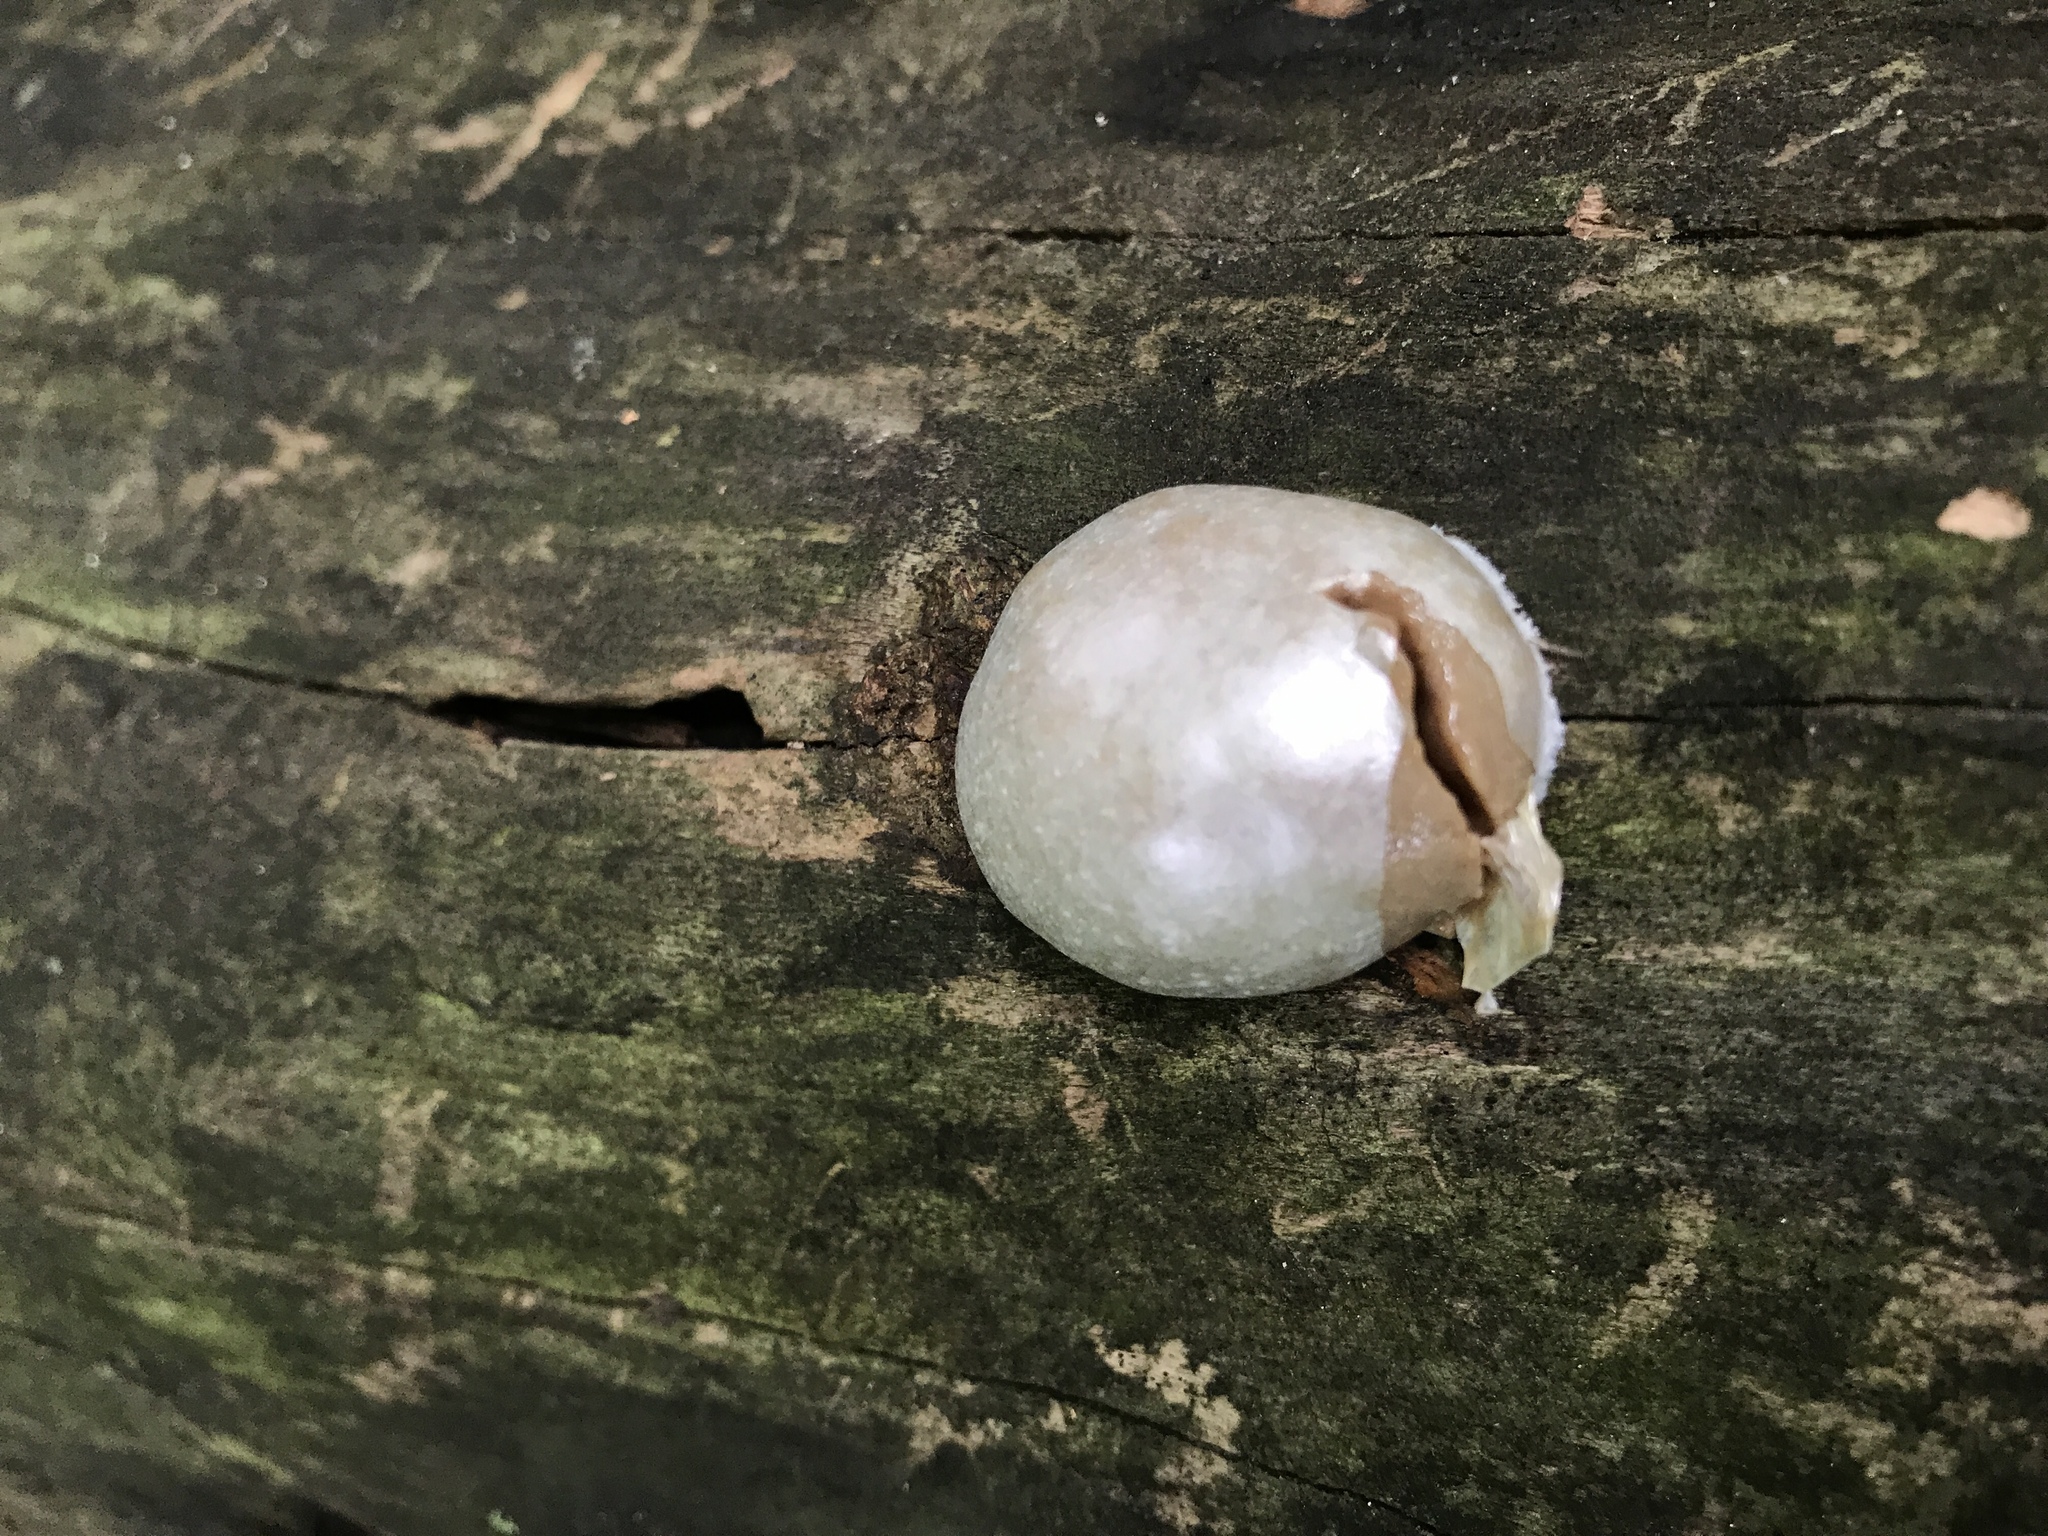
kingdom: Protozoa
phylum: Mycetozoa
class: Myxomycetes
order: Cribrariales
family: Tubiferaceae
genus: Reticularia
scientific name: Reticularia lycoperdon
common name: False puffball
